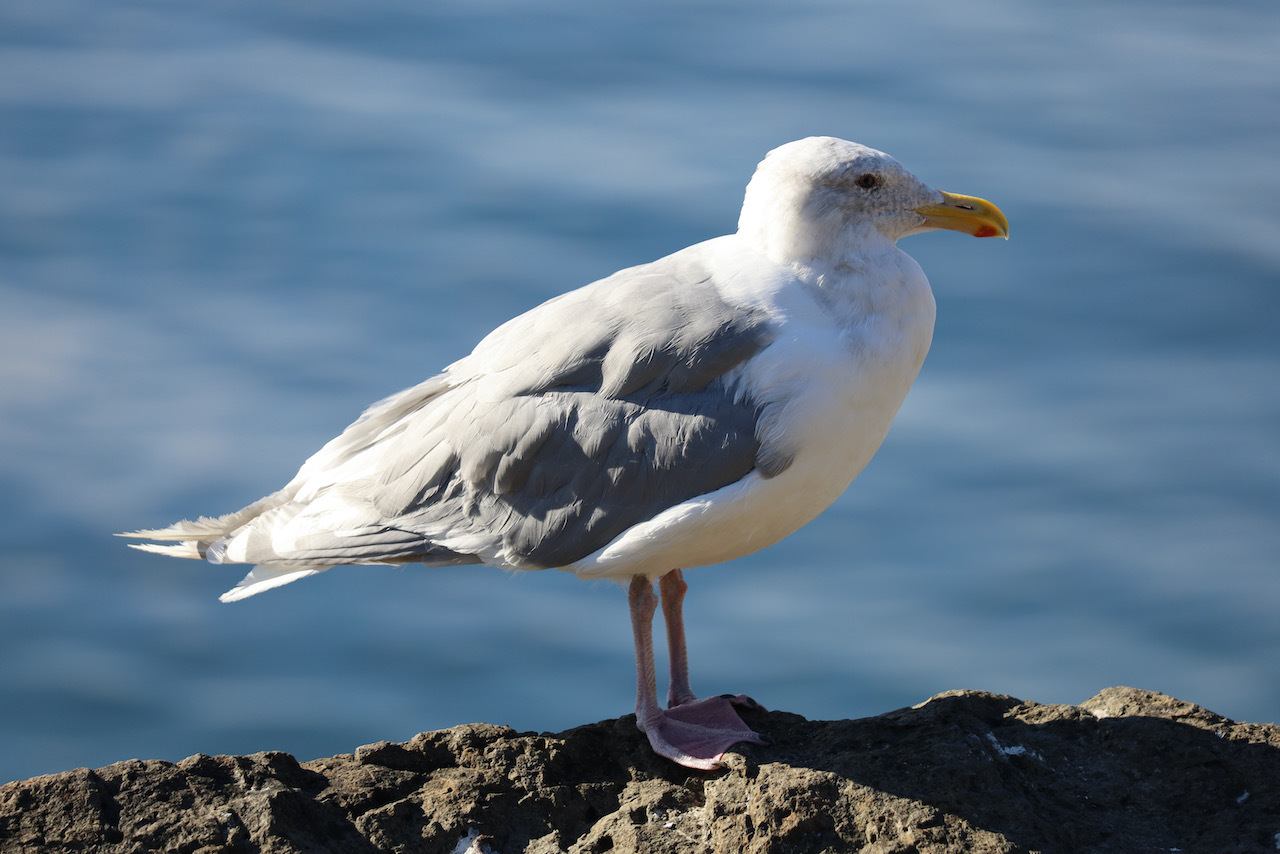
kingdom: Animalia
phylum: Chordata
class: Aves
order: Charadriiformes
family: Laridae
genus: Larus
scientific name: Larus
